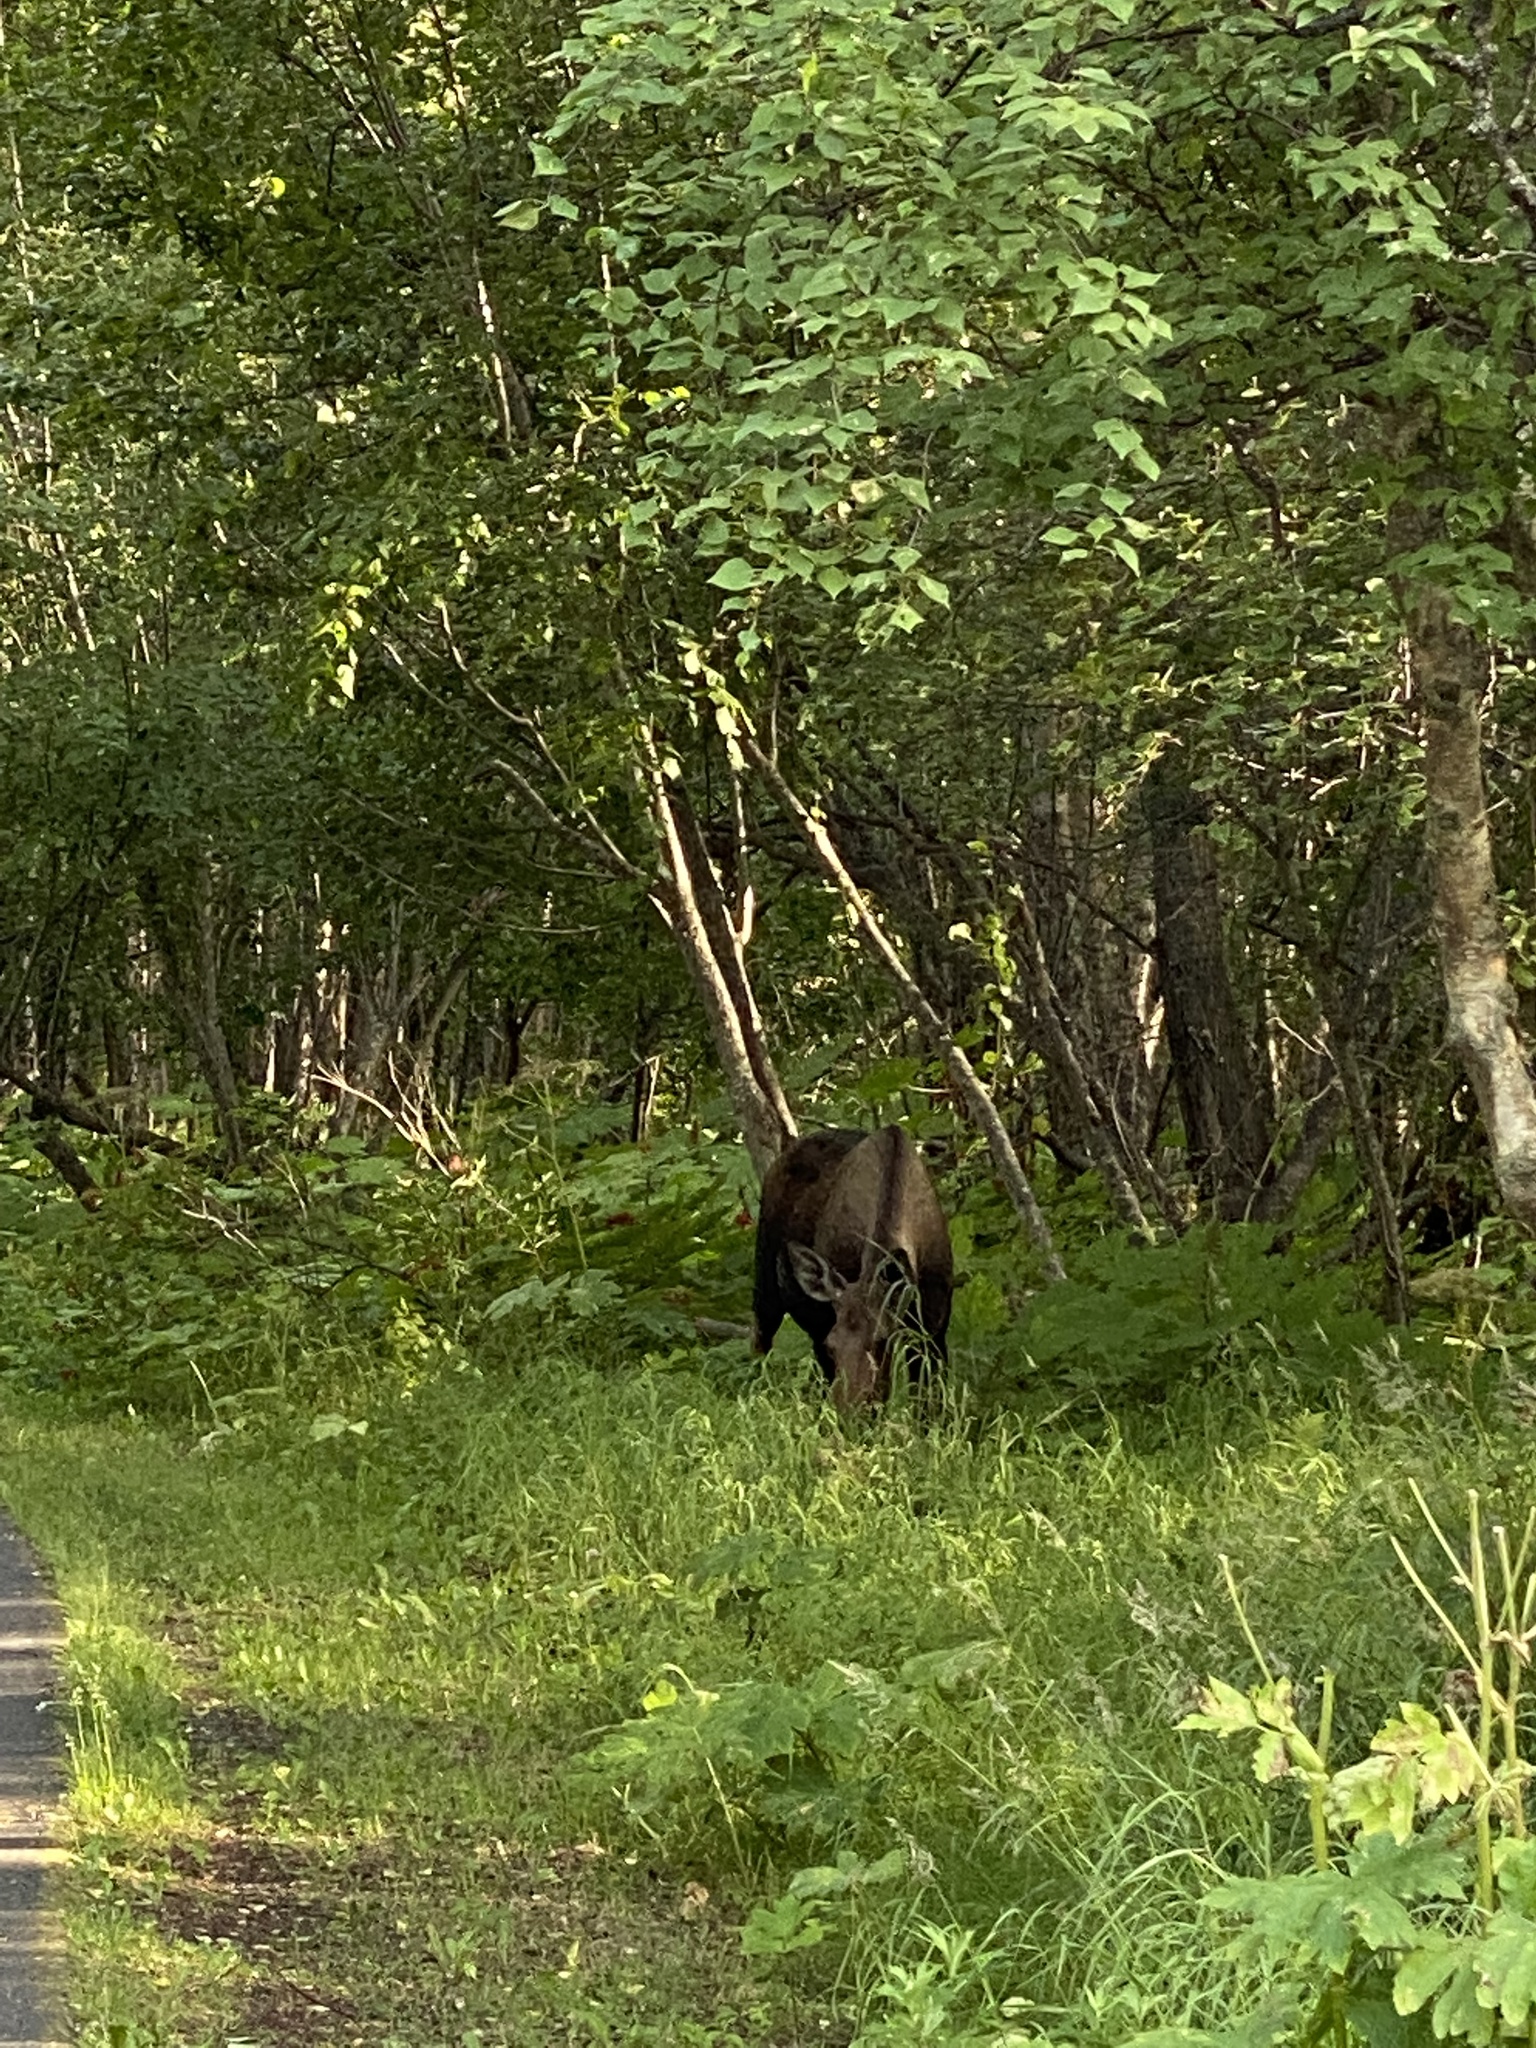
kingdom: Animalia
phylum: Chordata
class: Mammalia
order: Artiodactyla
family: Cervidae
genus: Alces
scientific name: Alces alces
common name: Moose
